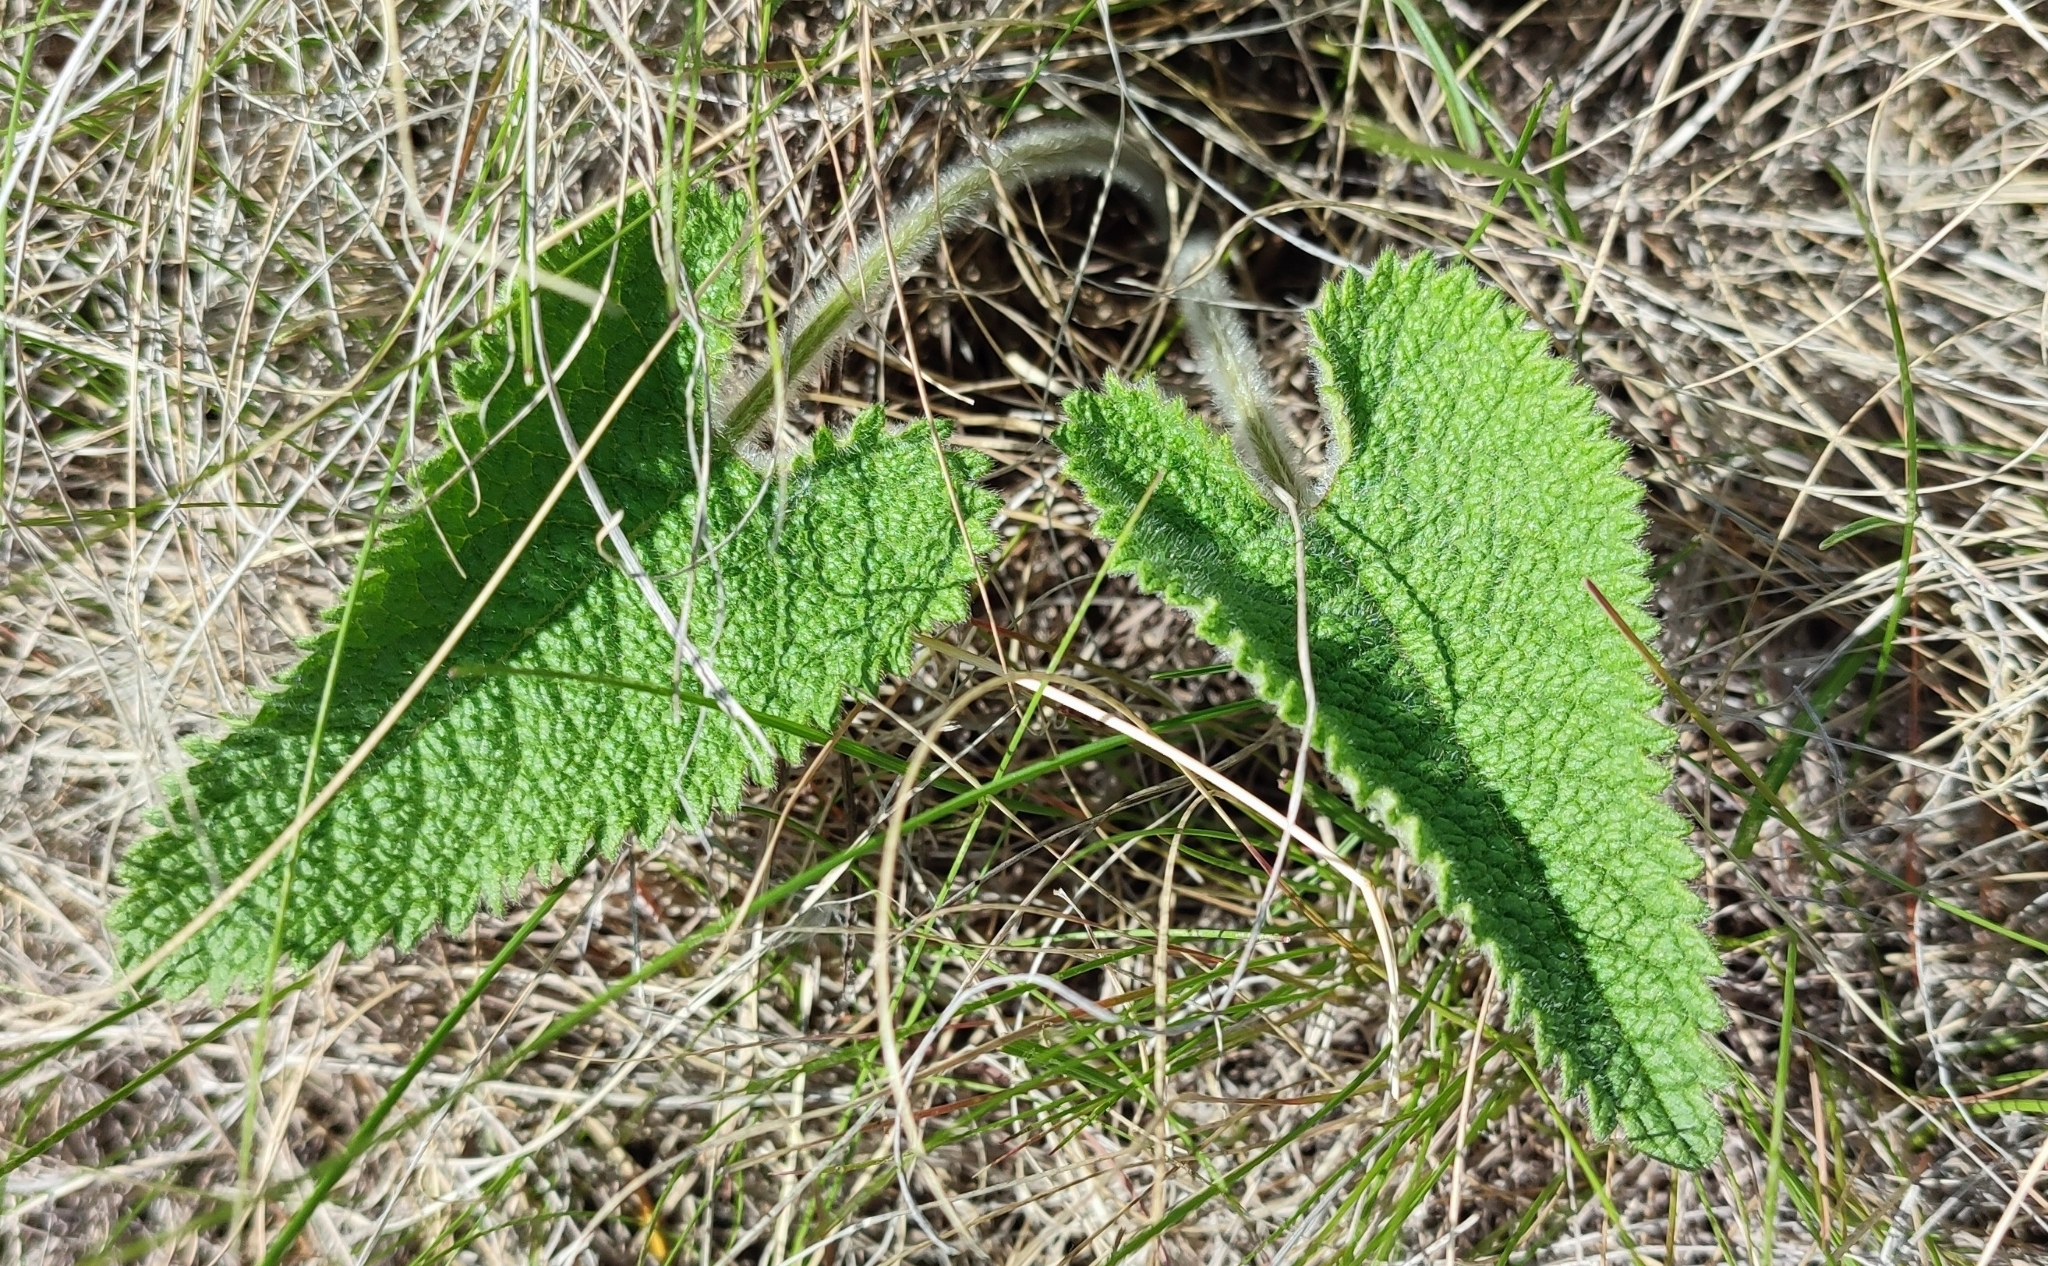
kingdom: Plantae
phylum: Tracheophyta
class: Magnoliopsida
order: Lamiales
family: Lamiaceae
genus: Phlomoides
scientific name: Phlomoides tuberosa
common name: Tuberous jerusalem sage
